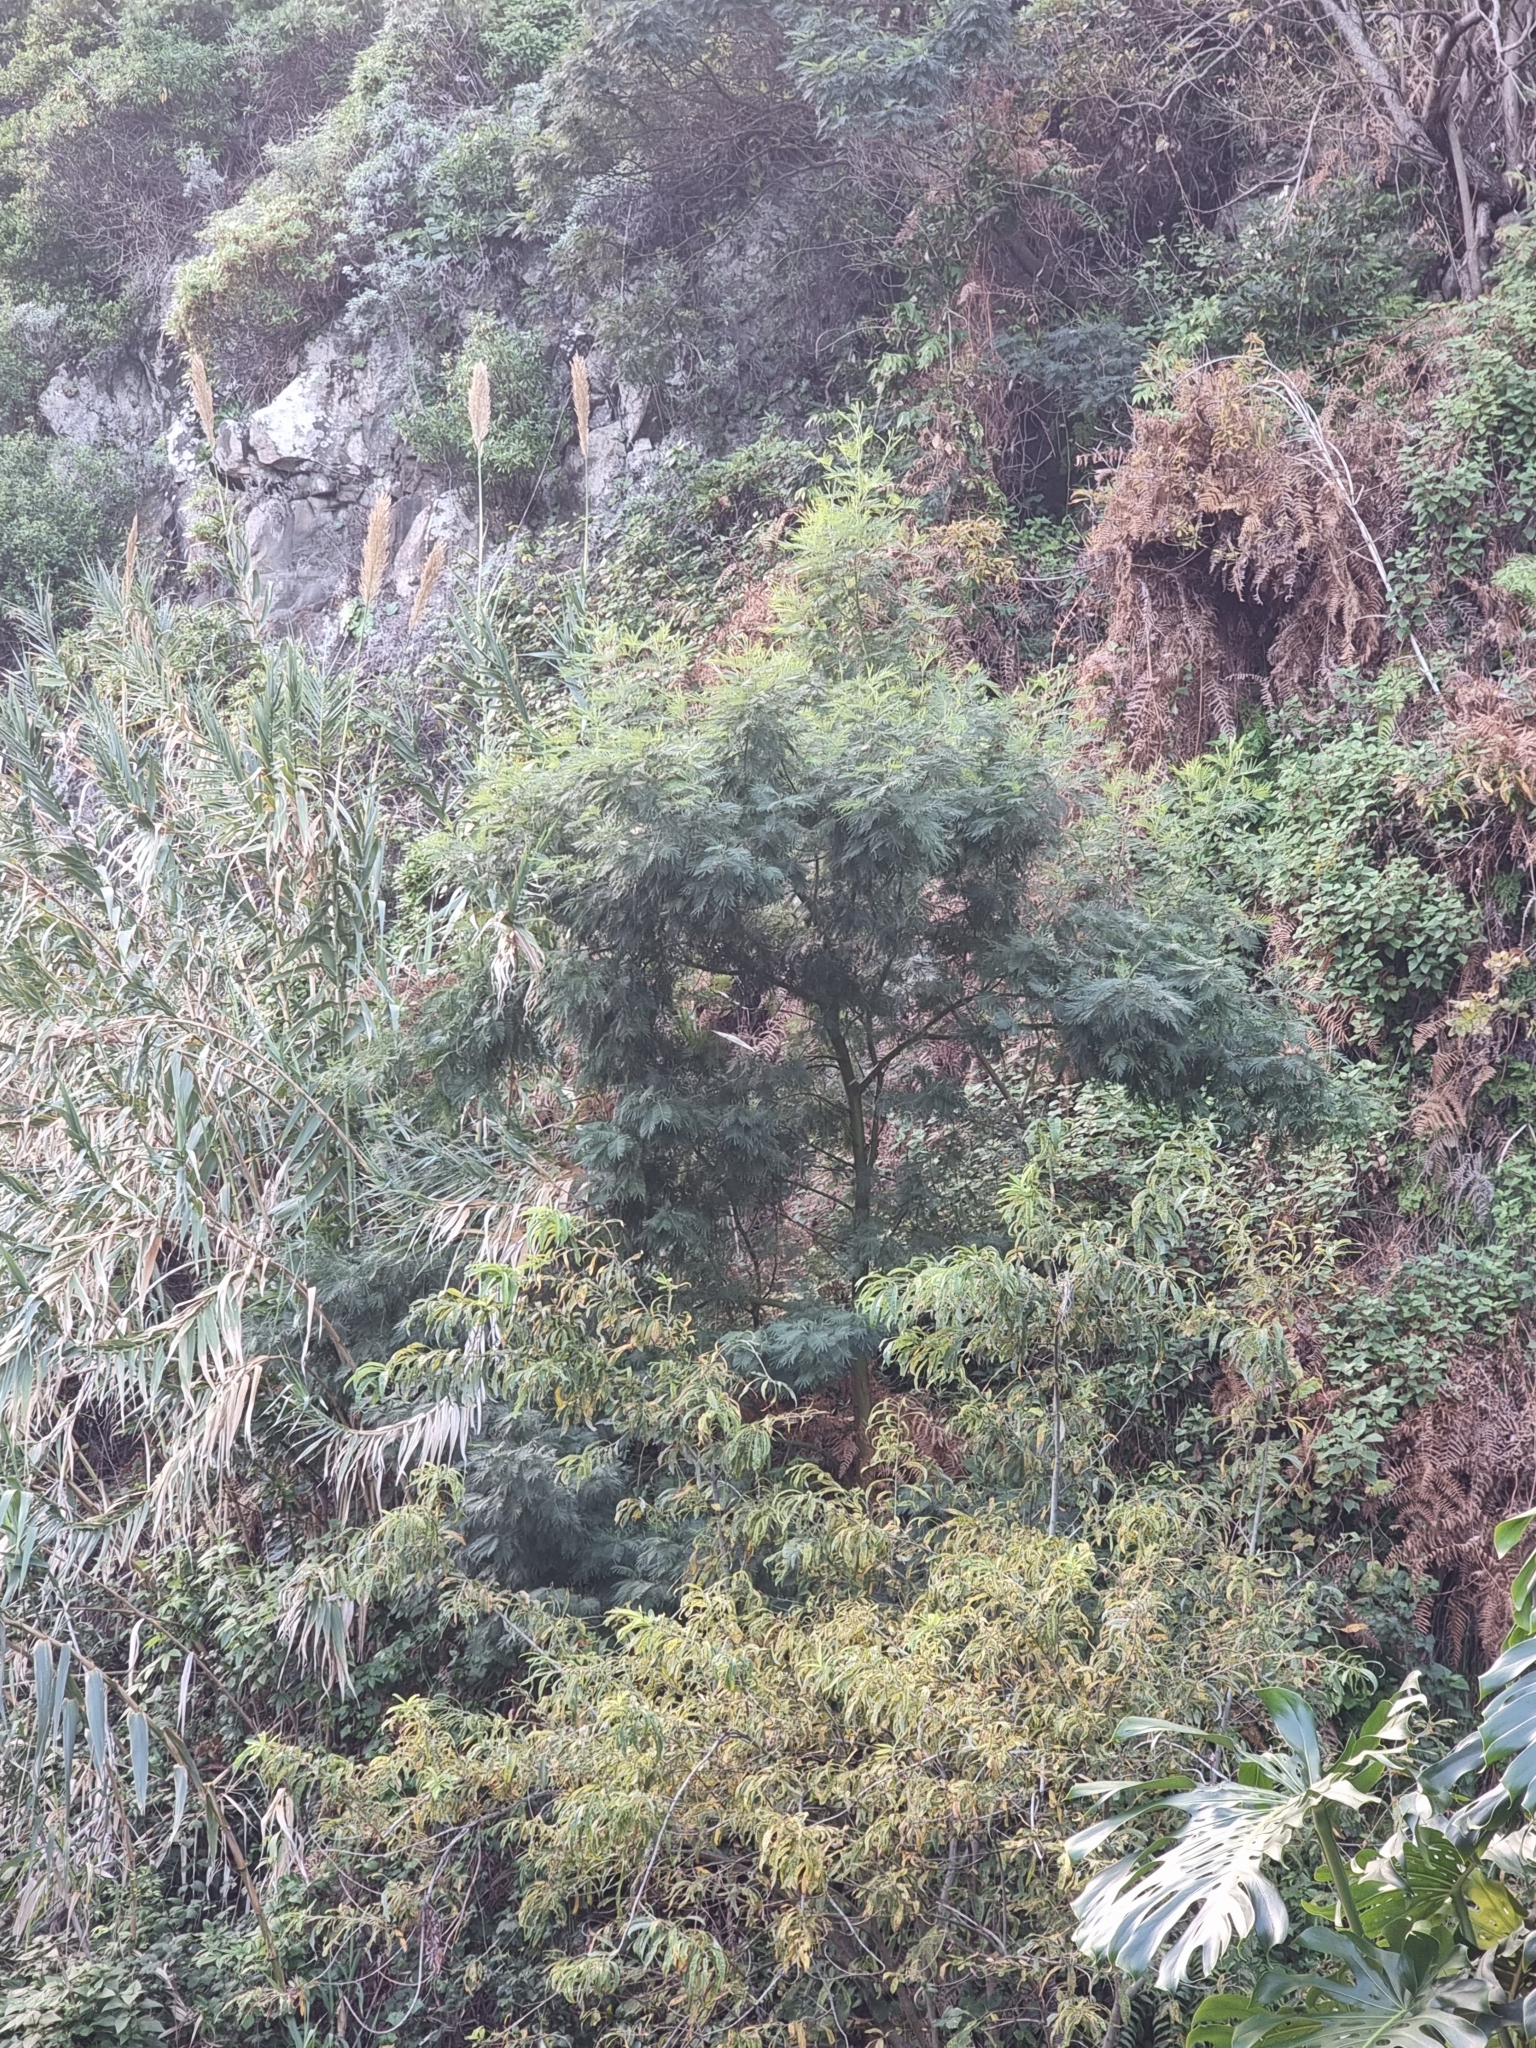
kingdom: Plantae
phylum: Tracheophyta
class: Magnoliopsida
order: Fabales
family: Fabaceae
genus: Acacia
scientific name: Acacia mearnsii
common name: Black wattle
